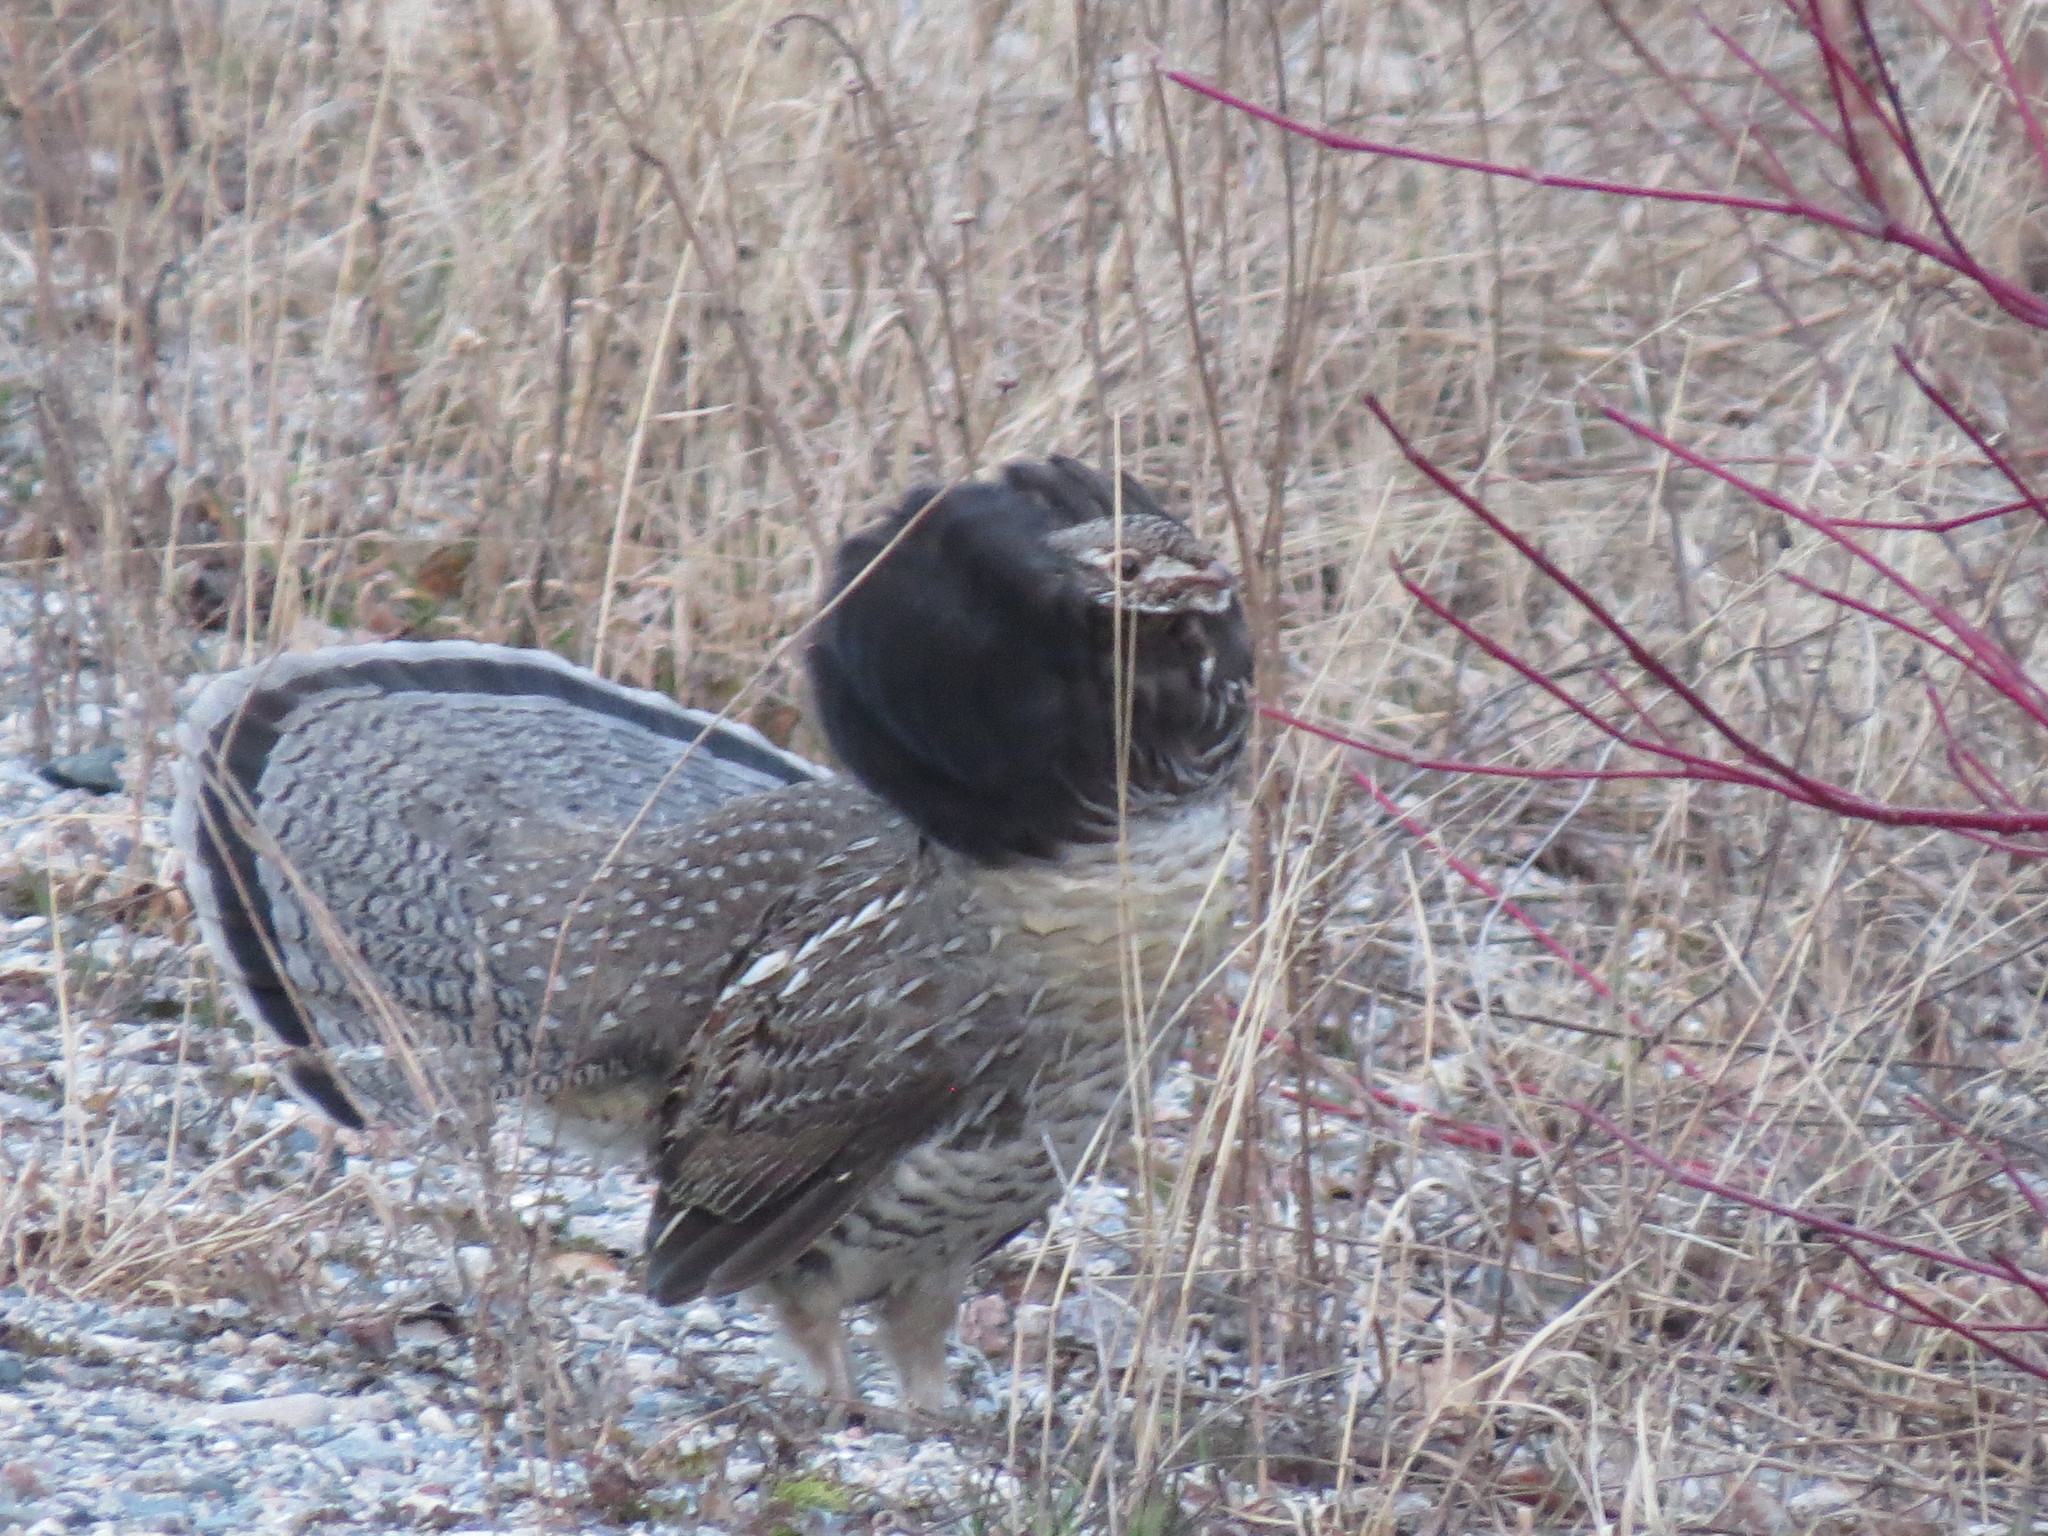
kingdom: Animalia
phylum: Chordata
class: Aves
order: Galliformes
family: Phasianidae
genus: Bonasa
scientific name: Bonasa umbellus
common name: Ruffed grouse
